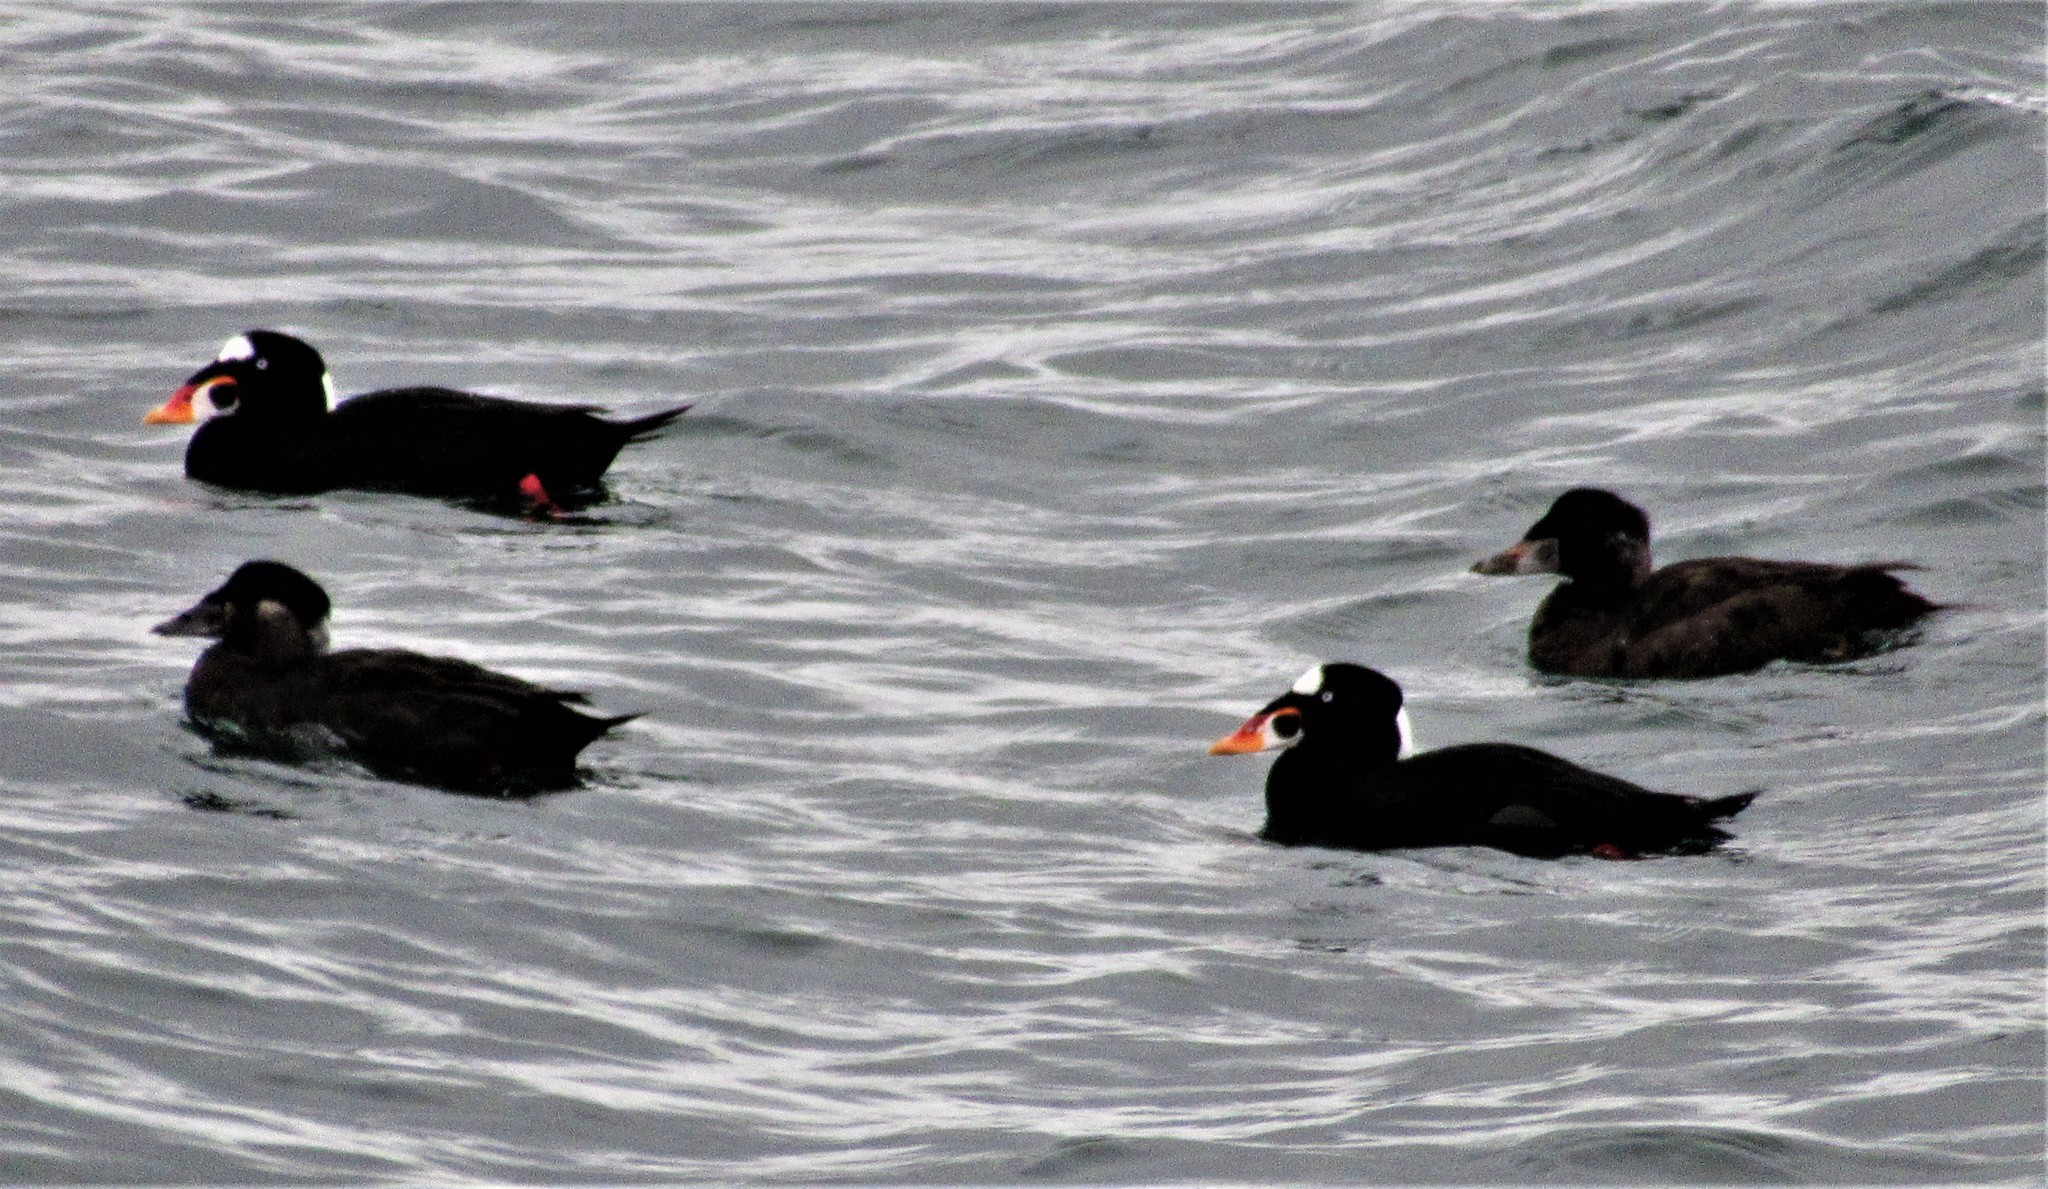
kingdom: Animalia
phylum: Chordata
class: Aves
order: Anseriformes
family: Anatidae
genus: Melanitta
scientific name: Melanitta perspicillata
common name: Surf scoter
